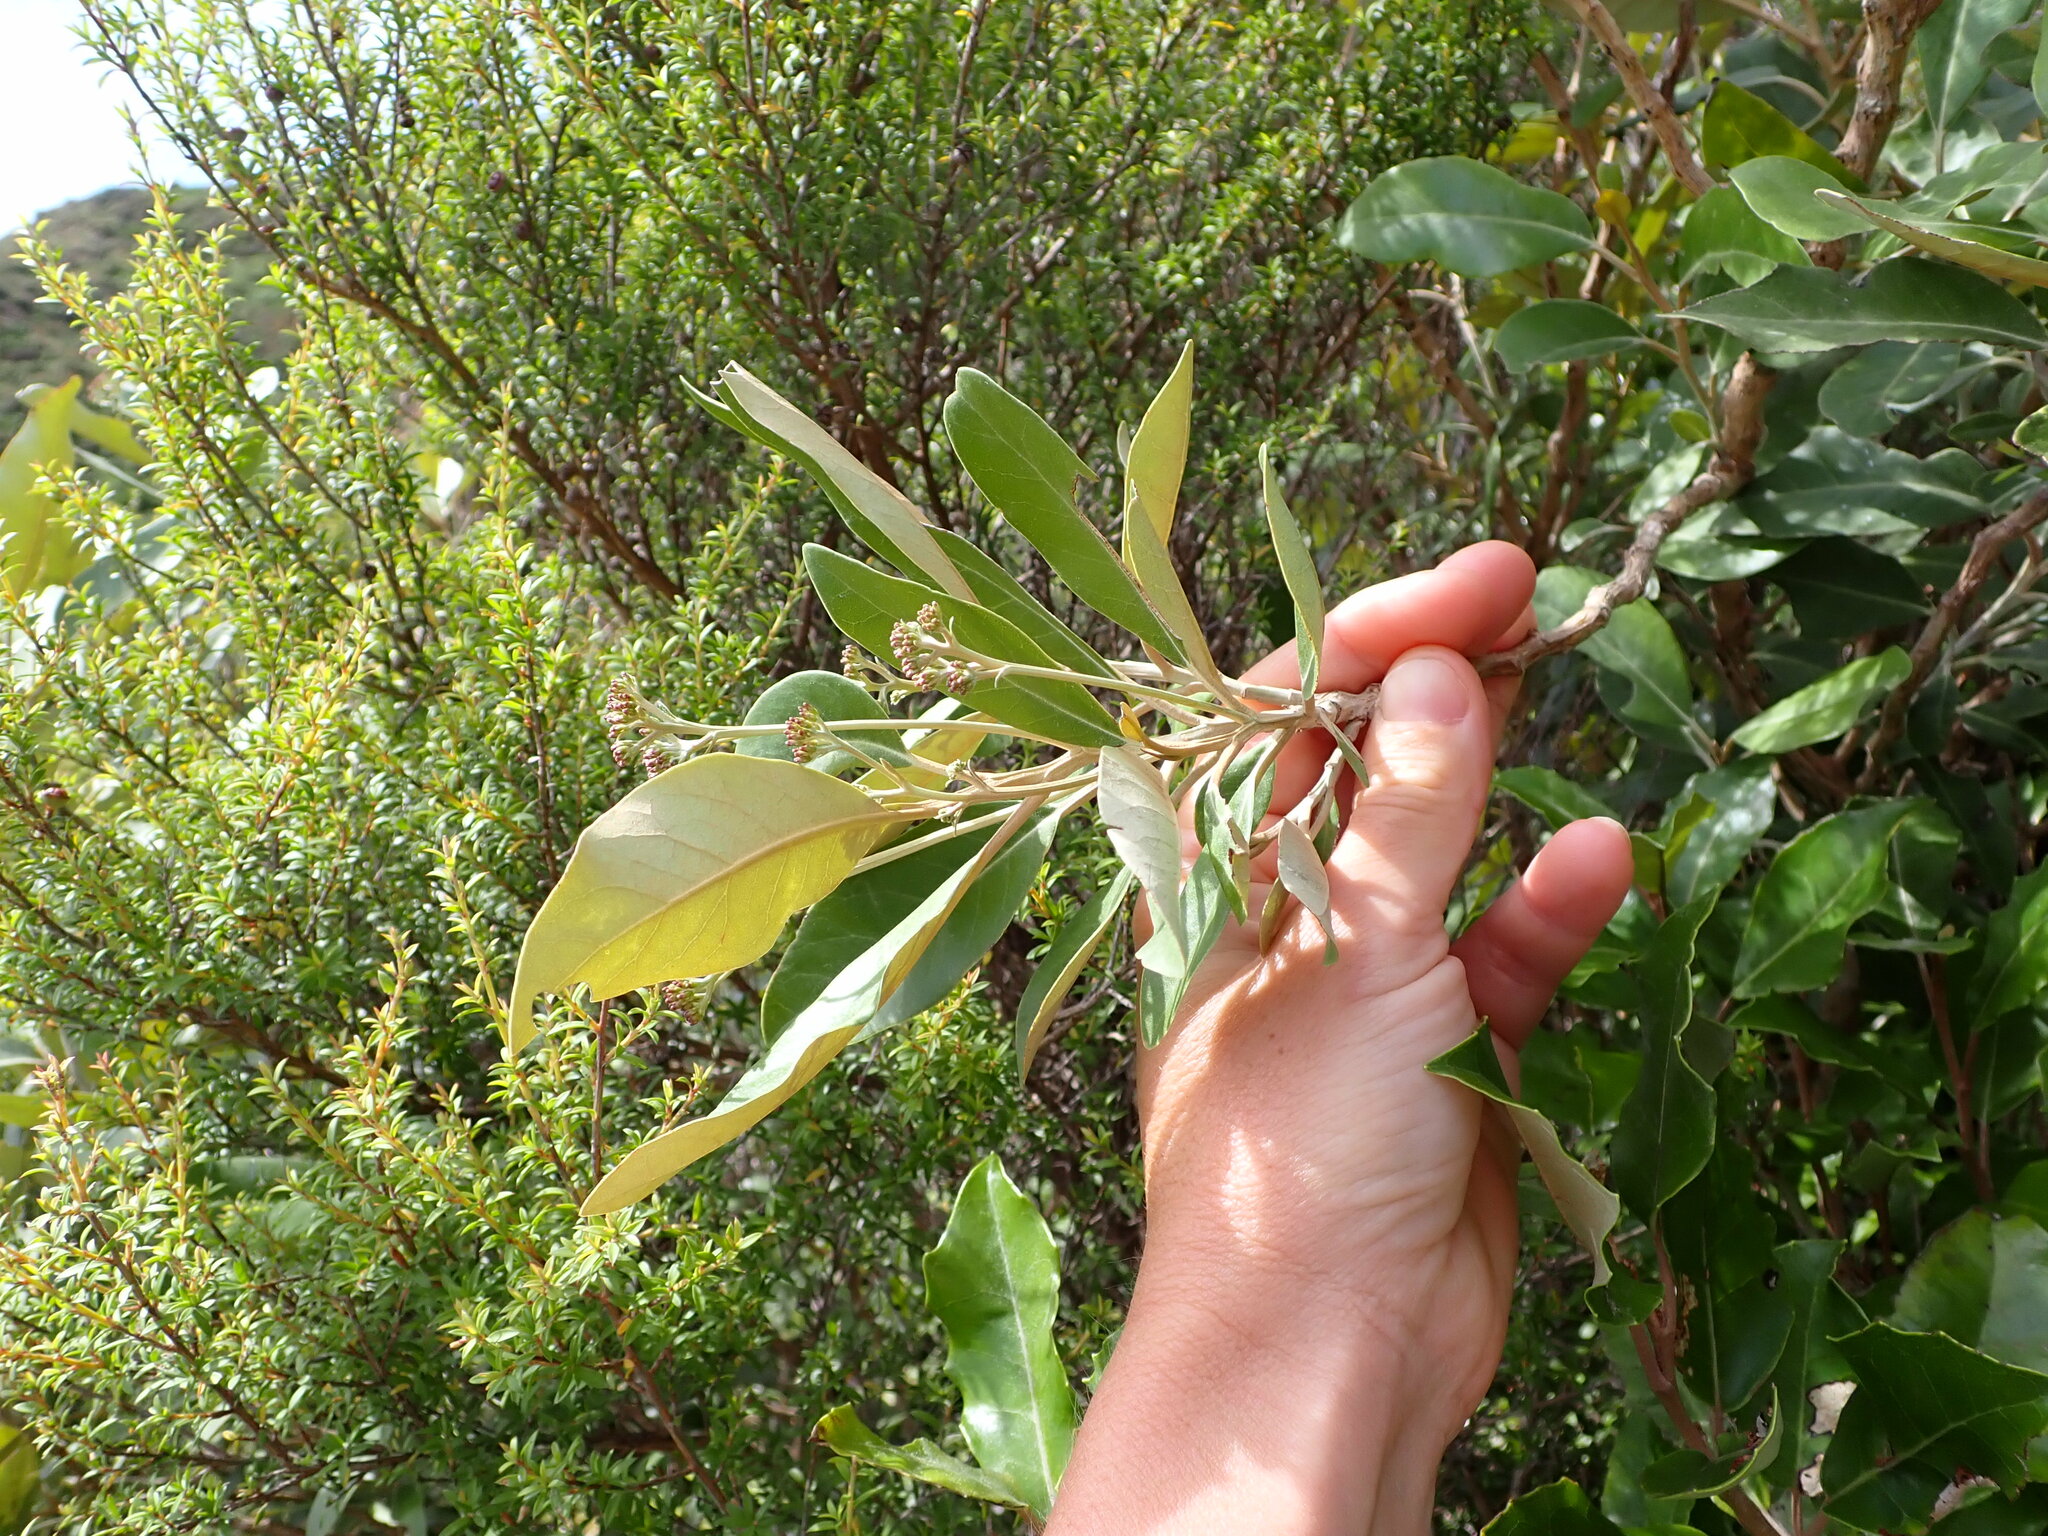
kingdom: Plantae
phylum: Tracheophyta
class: Magnoliopsida
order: Asterales
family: Asteraceae
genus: Olearia
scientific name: Olearia avicenniifolia
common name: Mangrove-leaf daisybush
